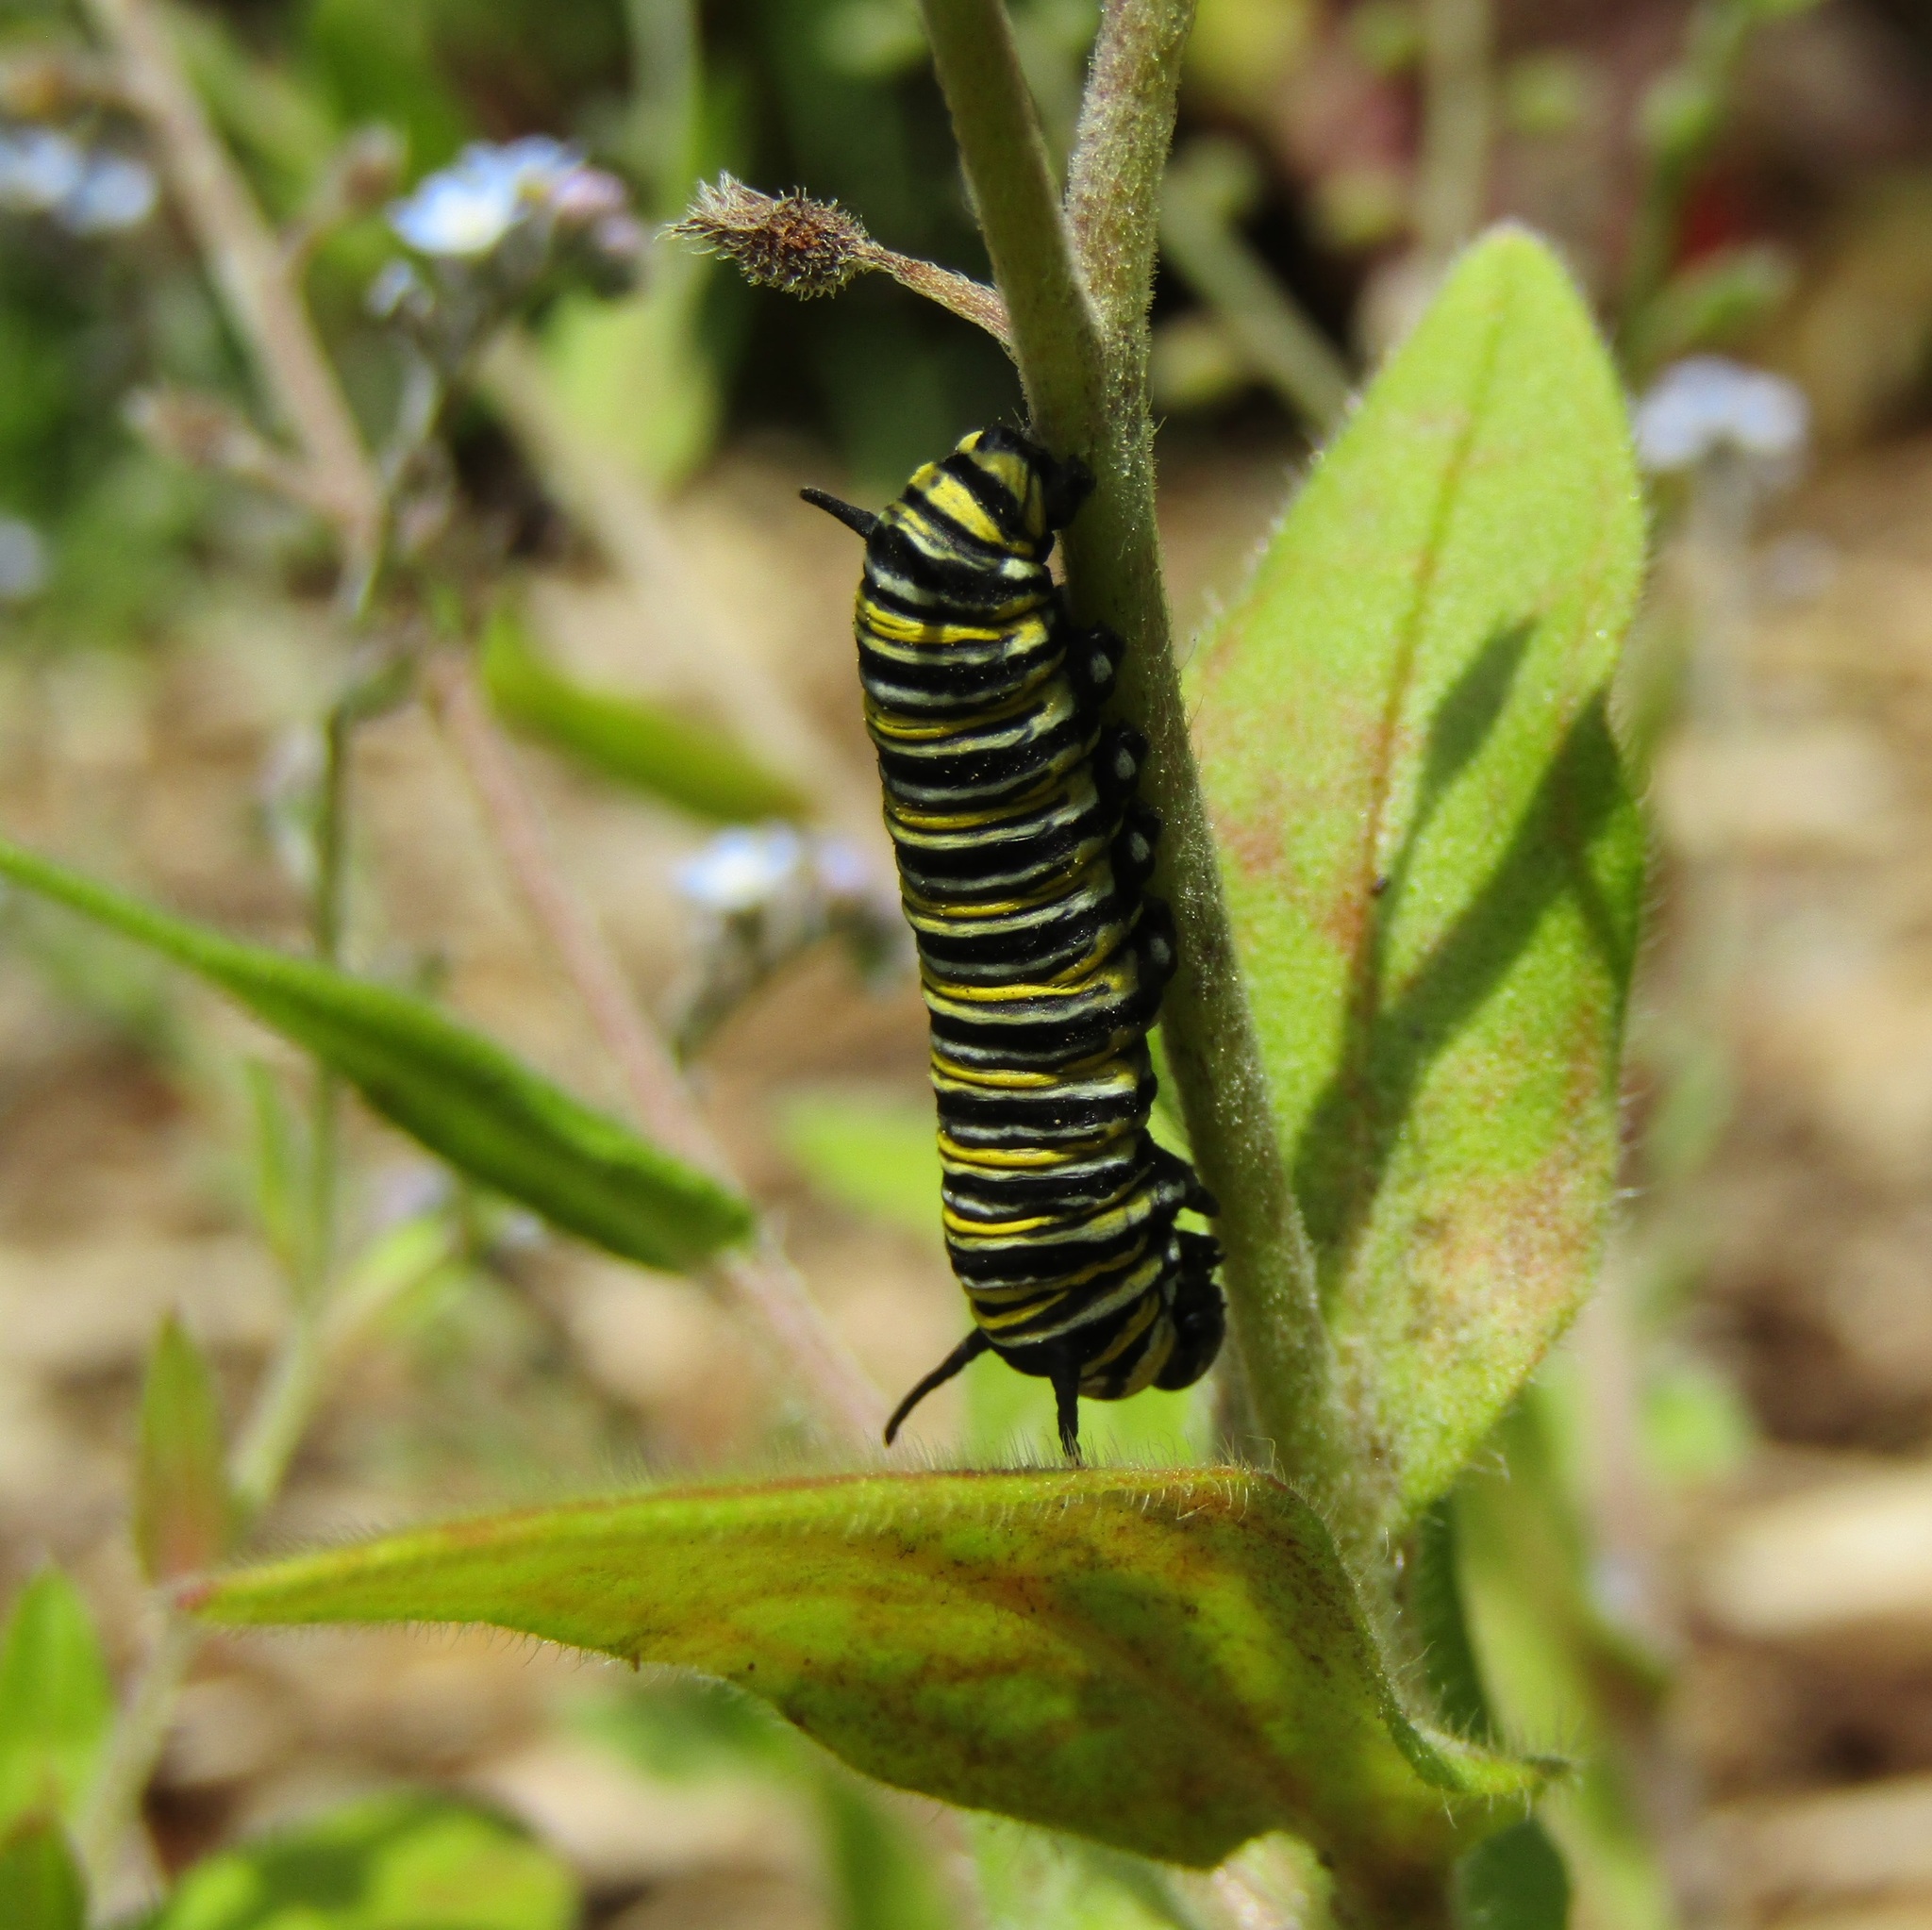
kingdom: Animalia
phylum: Arthropoda
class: Insecta
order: Lepidoptera
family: Nymphalidae
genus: Danaus
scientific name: Danaus plexippus
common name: Monarch
